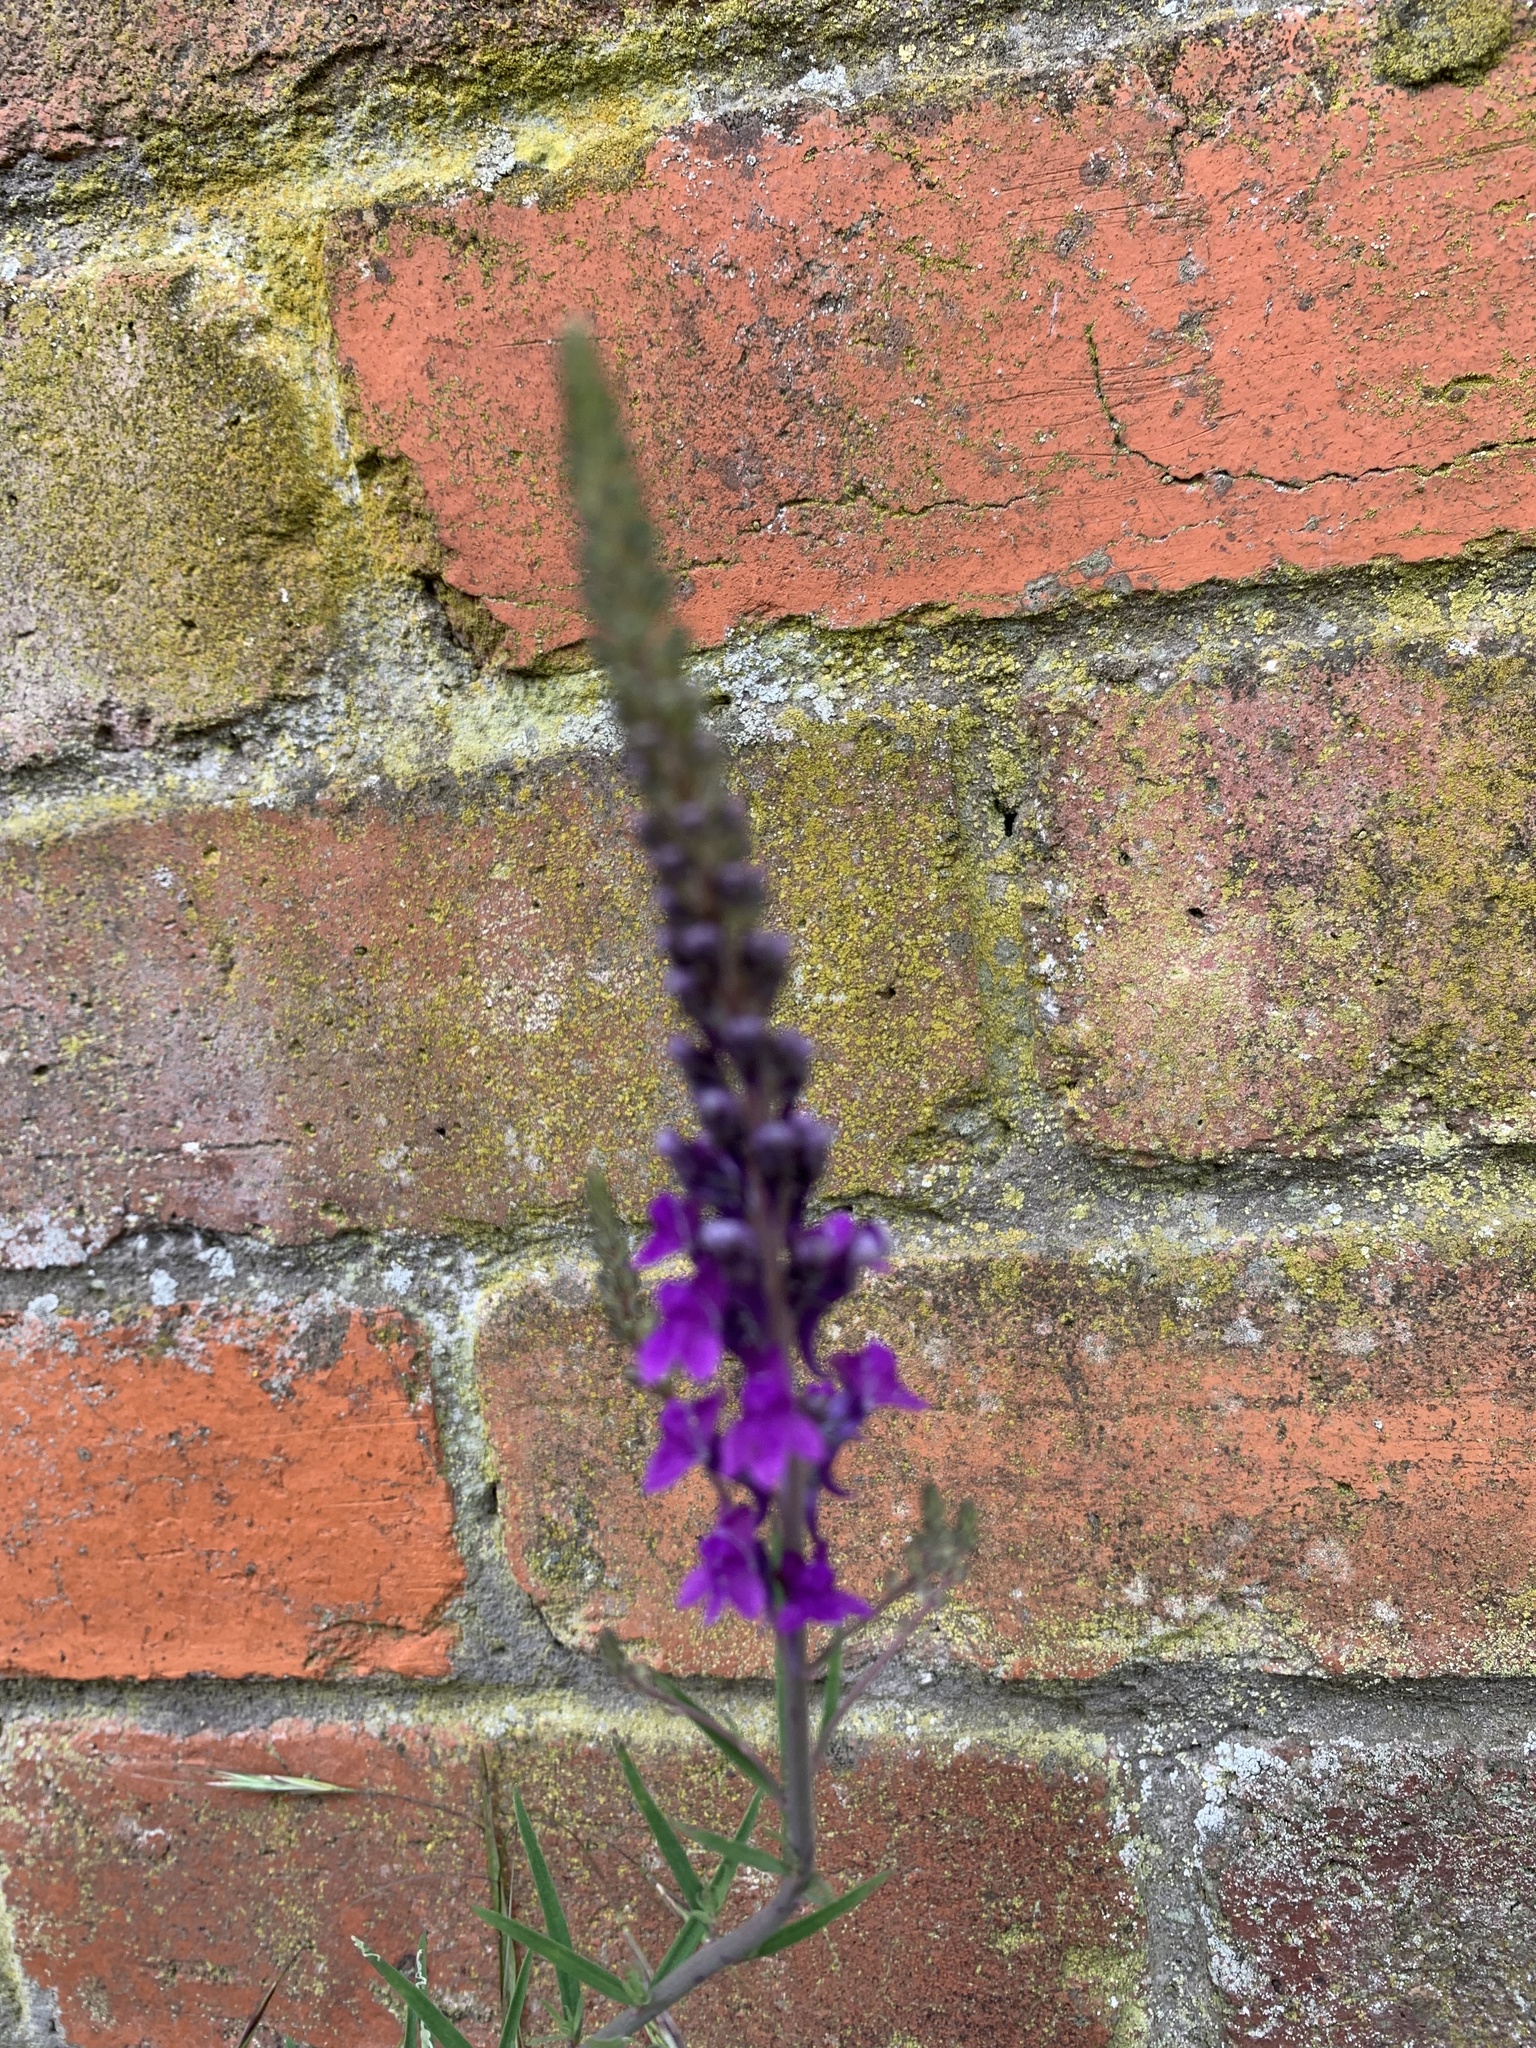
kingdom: Plantae
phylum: Tracheophyta
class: Magnoliopsida
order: Lamiales
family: Plantaginaceae
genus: Linaria
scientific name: Linaria purpurea
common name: Purple toadflax
